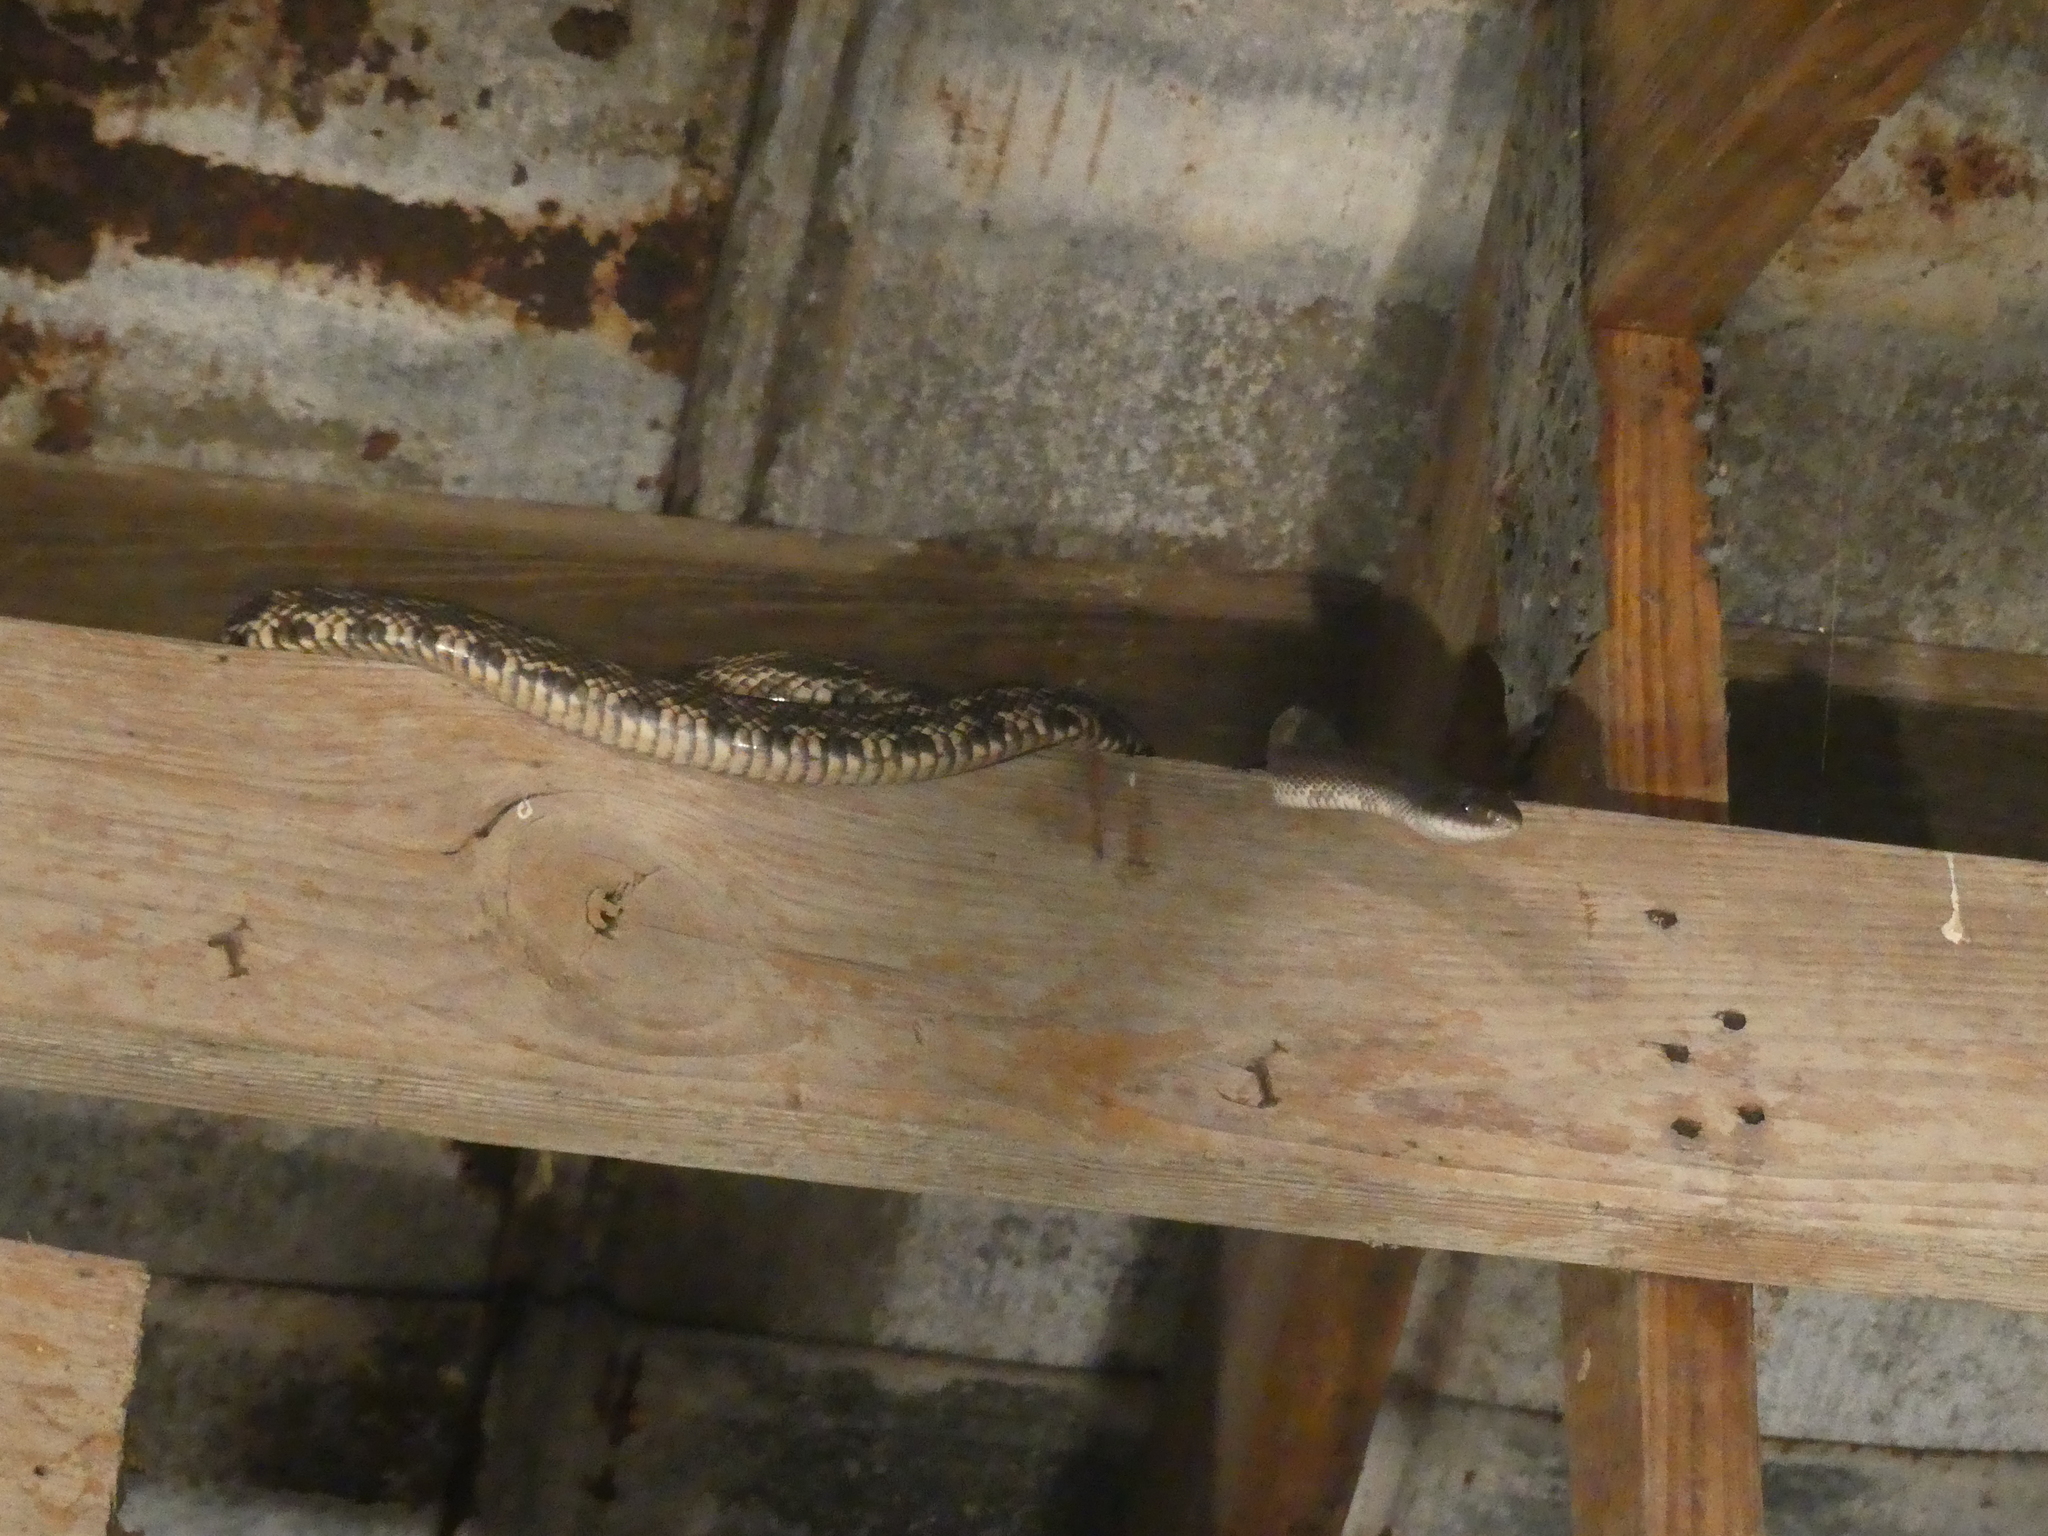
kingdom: Animalia
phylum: Chordata
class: Squamata
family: Colubridae
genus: Pantherophis
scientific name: Pantherophis obsoletus
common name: Black rat snake
